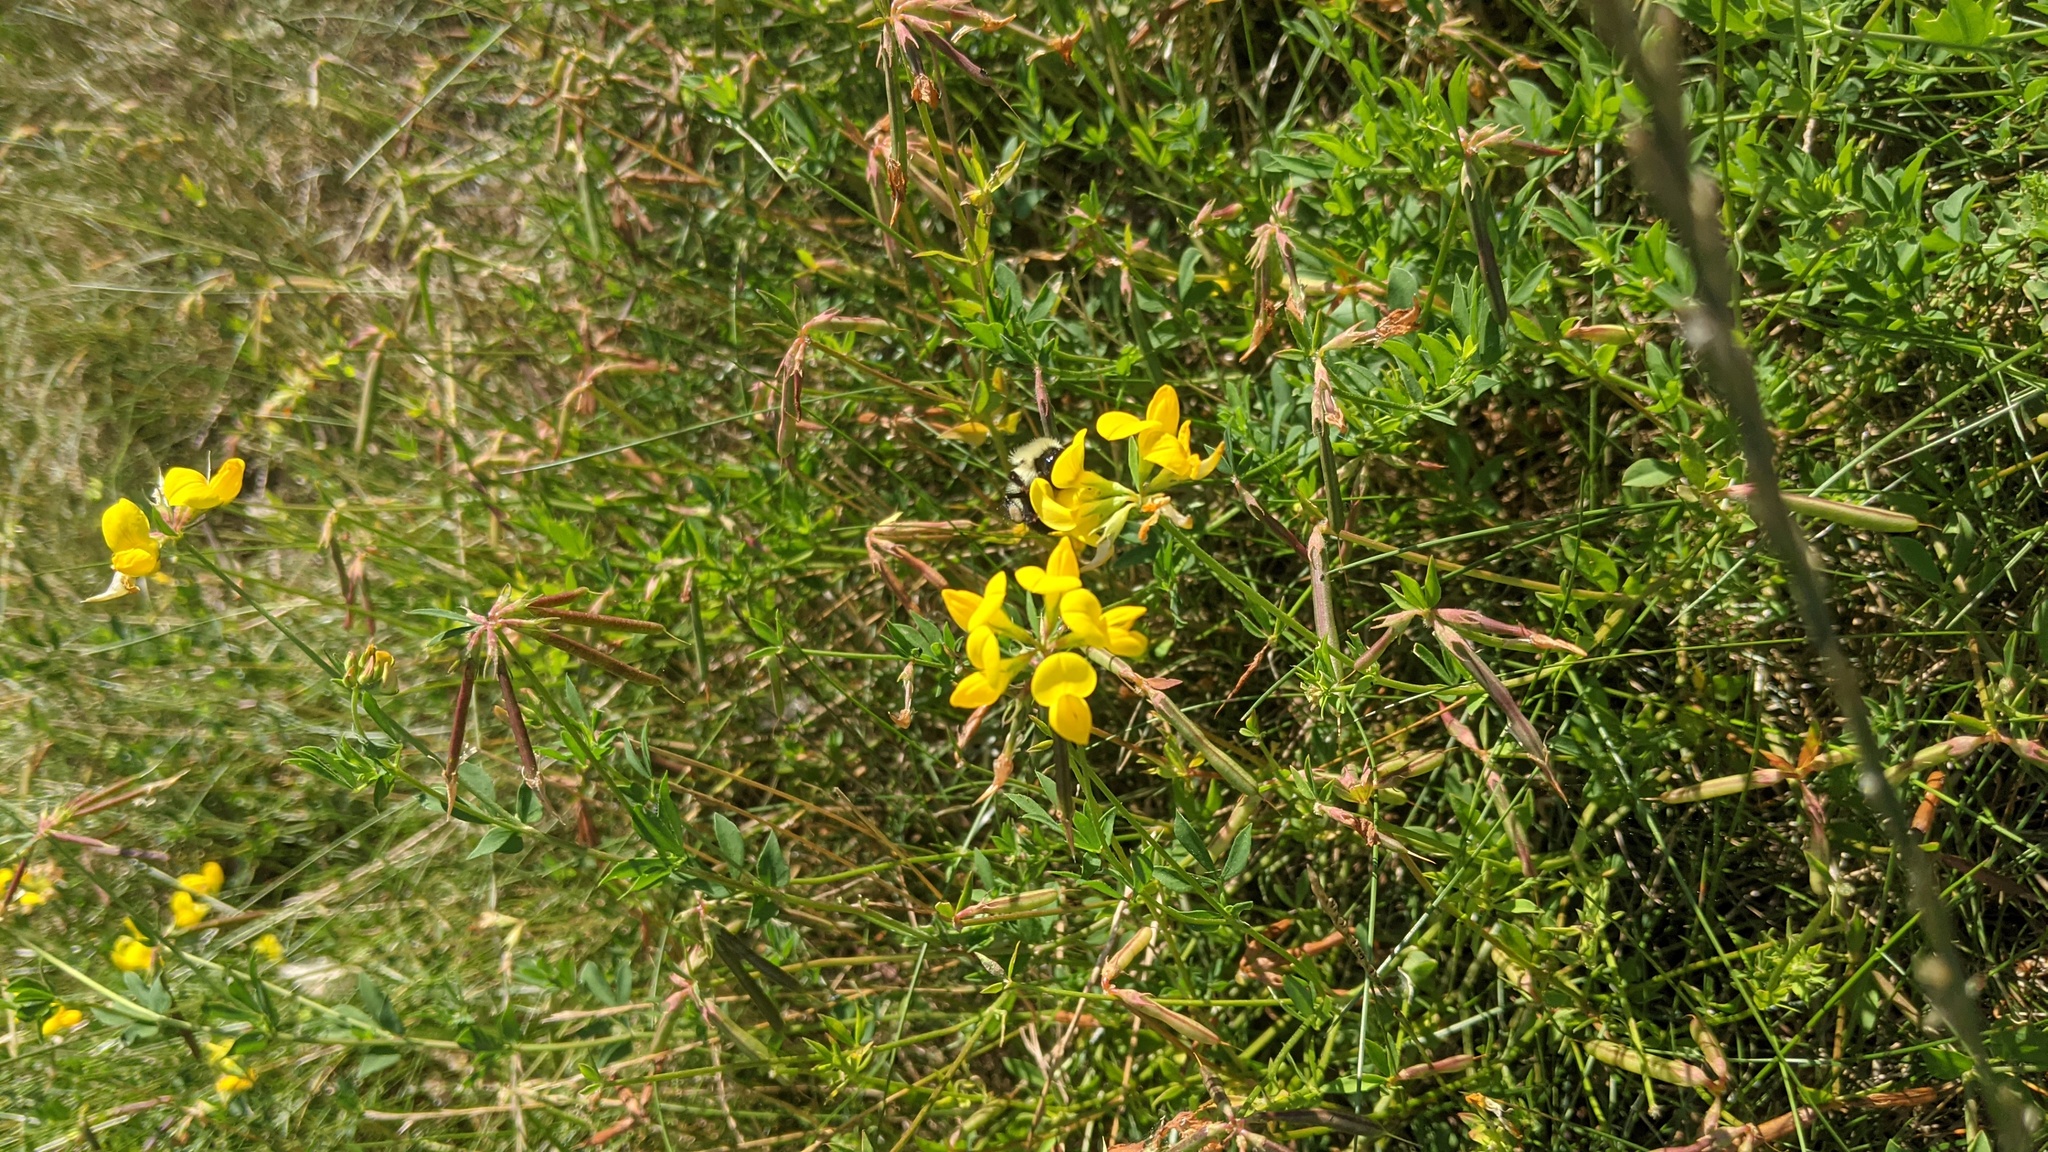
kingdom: Plantae
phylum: Tracheophyta
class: Magnoliopsida
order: Fabales
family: Fabaceae
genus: Lotus
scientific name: Lotus corniculatus
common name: Common bird's-foot-trefoil
